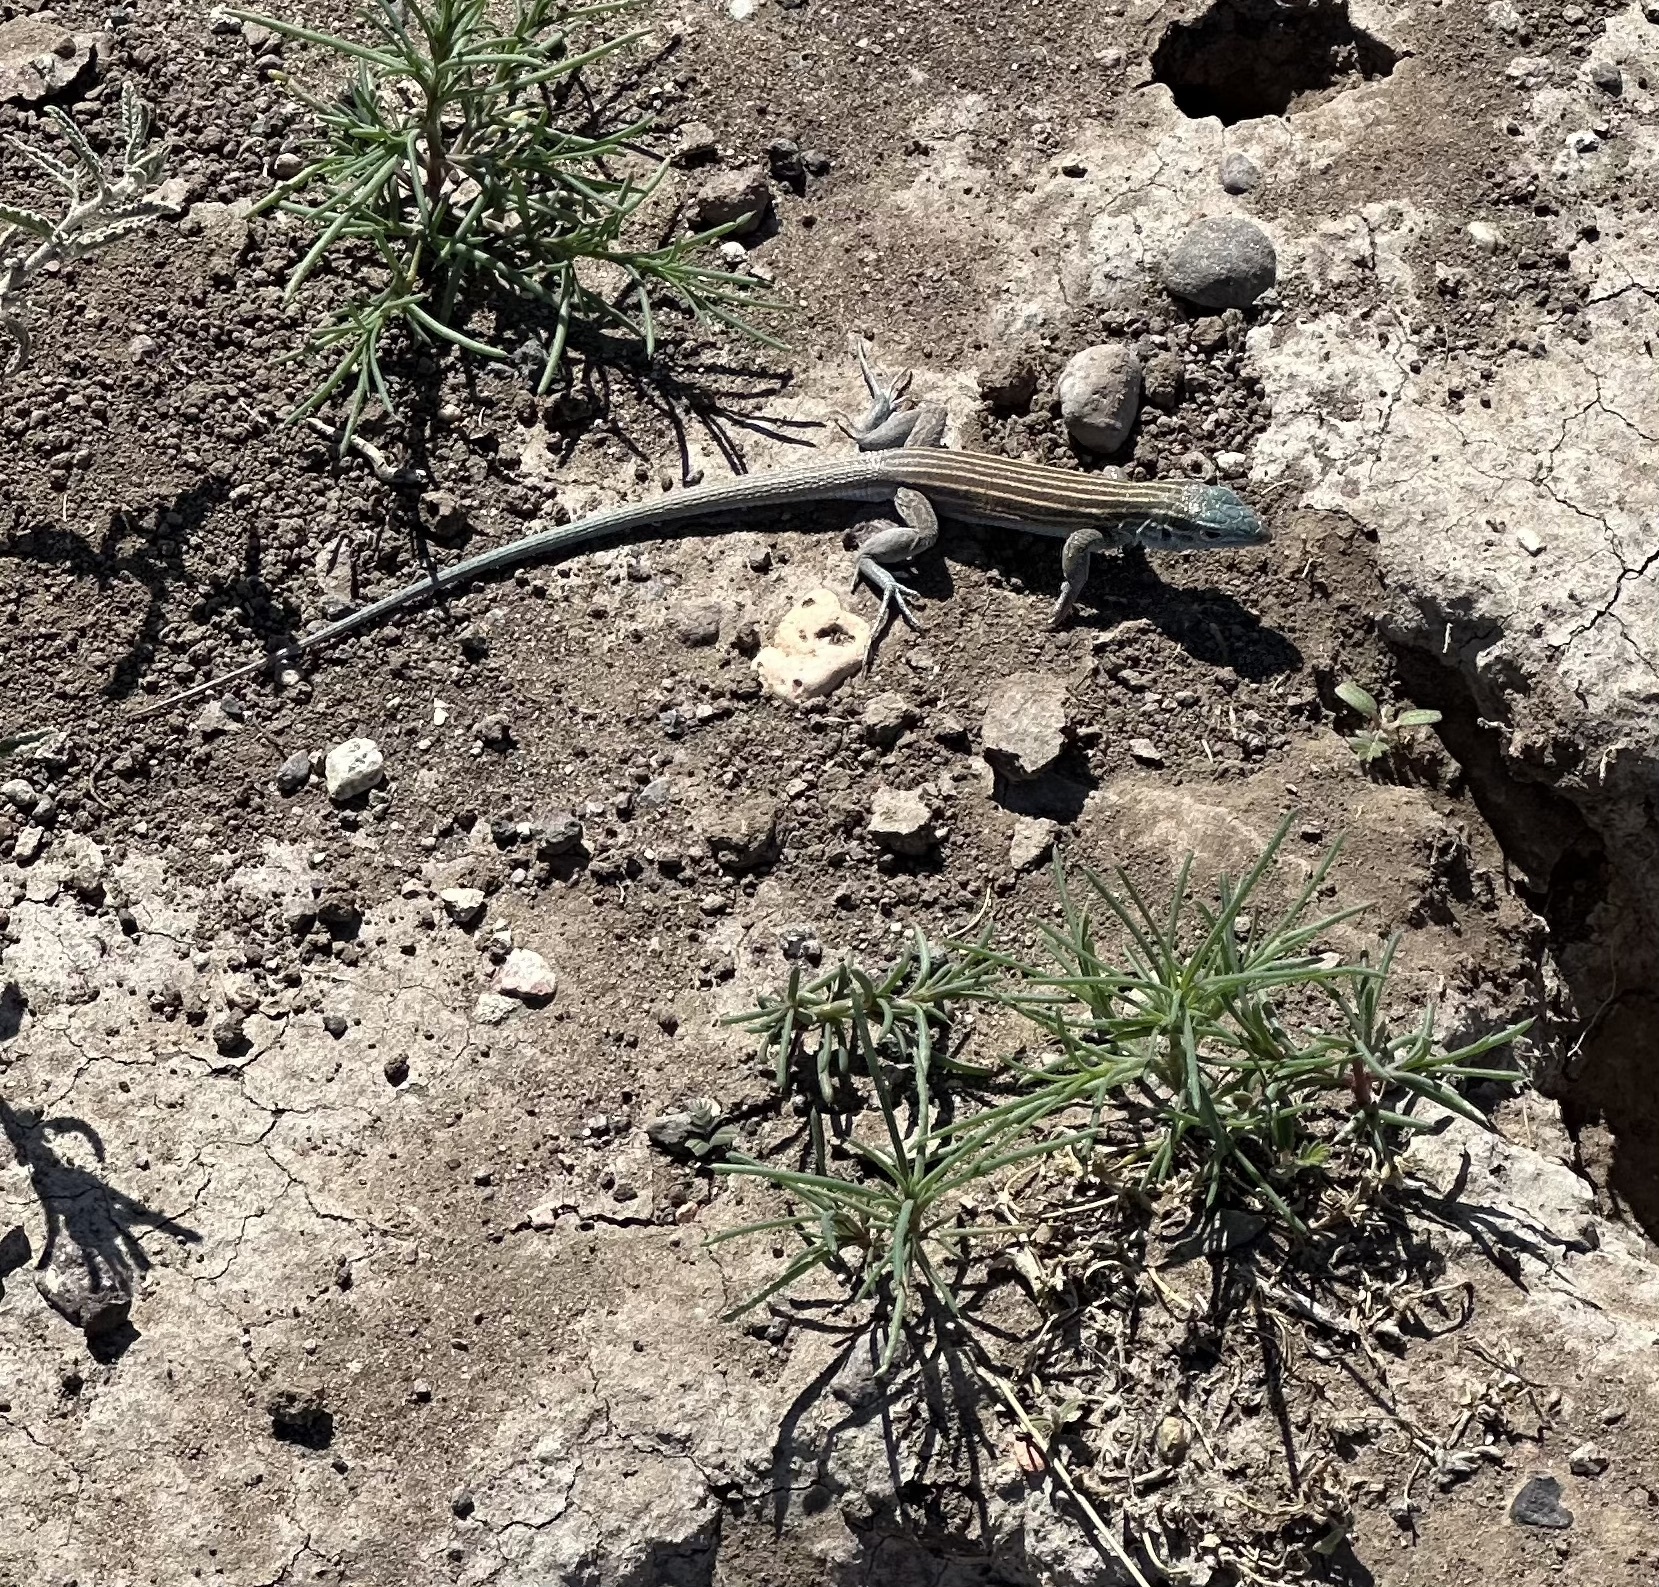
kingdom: Animalia
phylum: Chordata
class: Squamata
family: Teiidae
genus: Aspidoscelis
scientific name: Aspidoscelis inornatus
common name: Little striped whiptail
